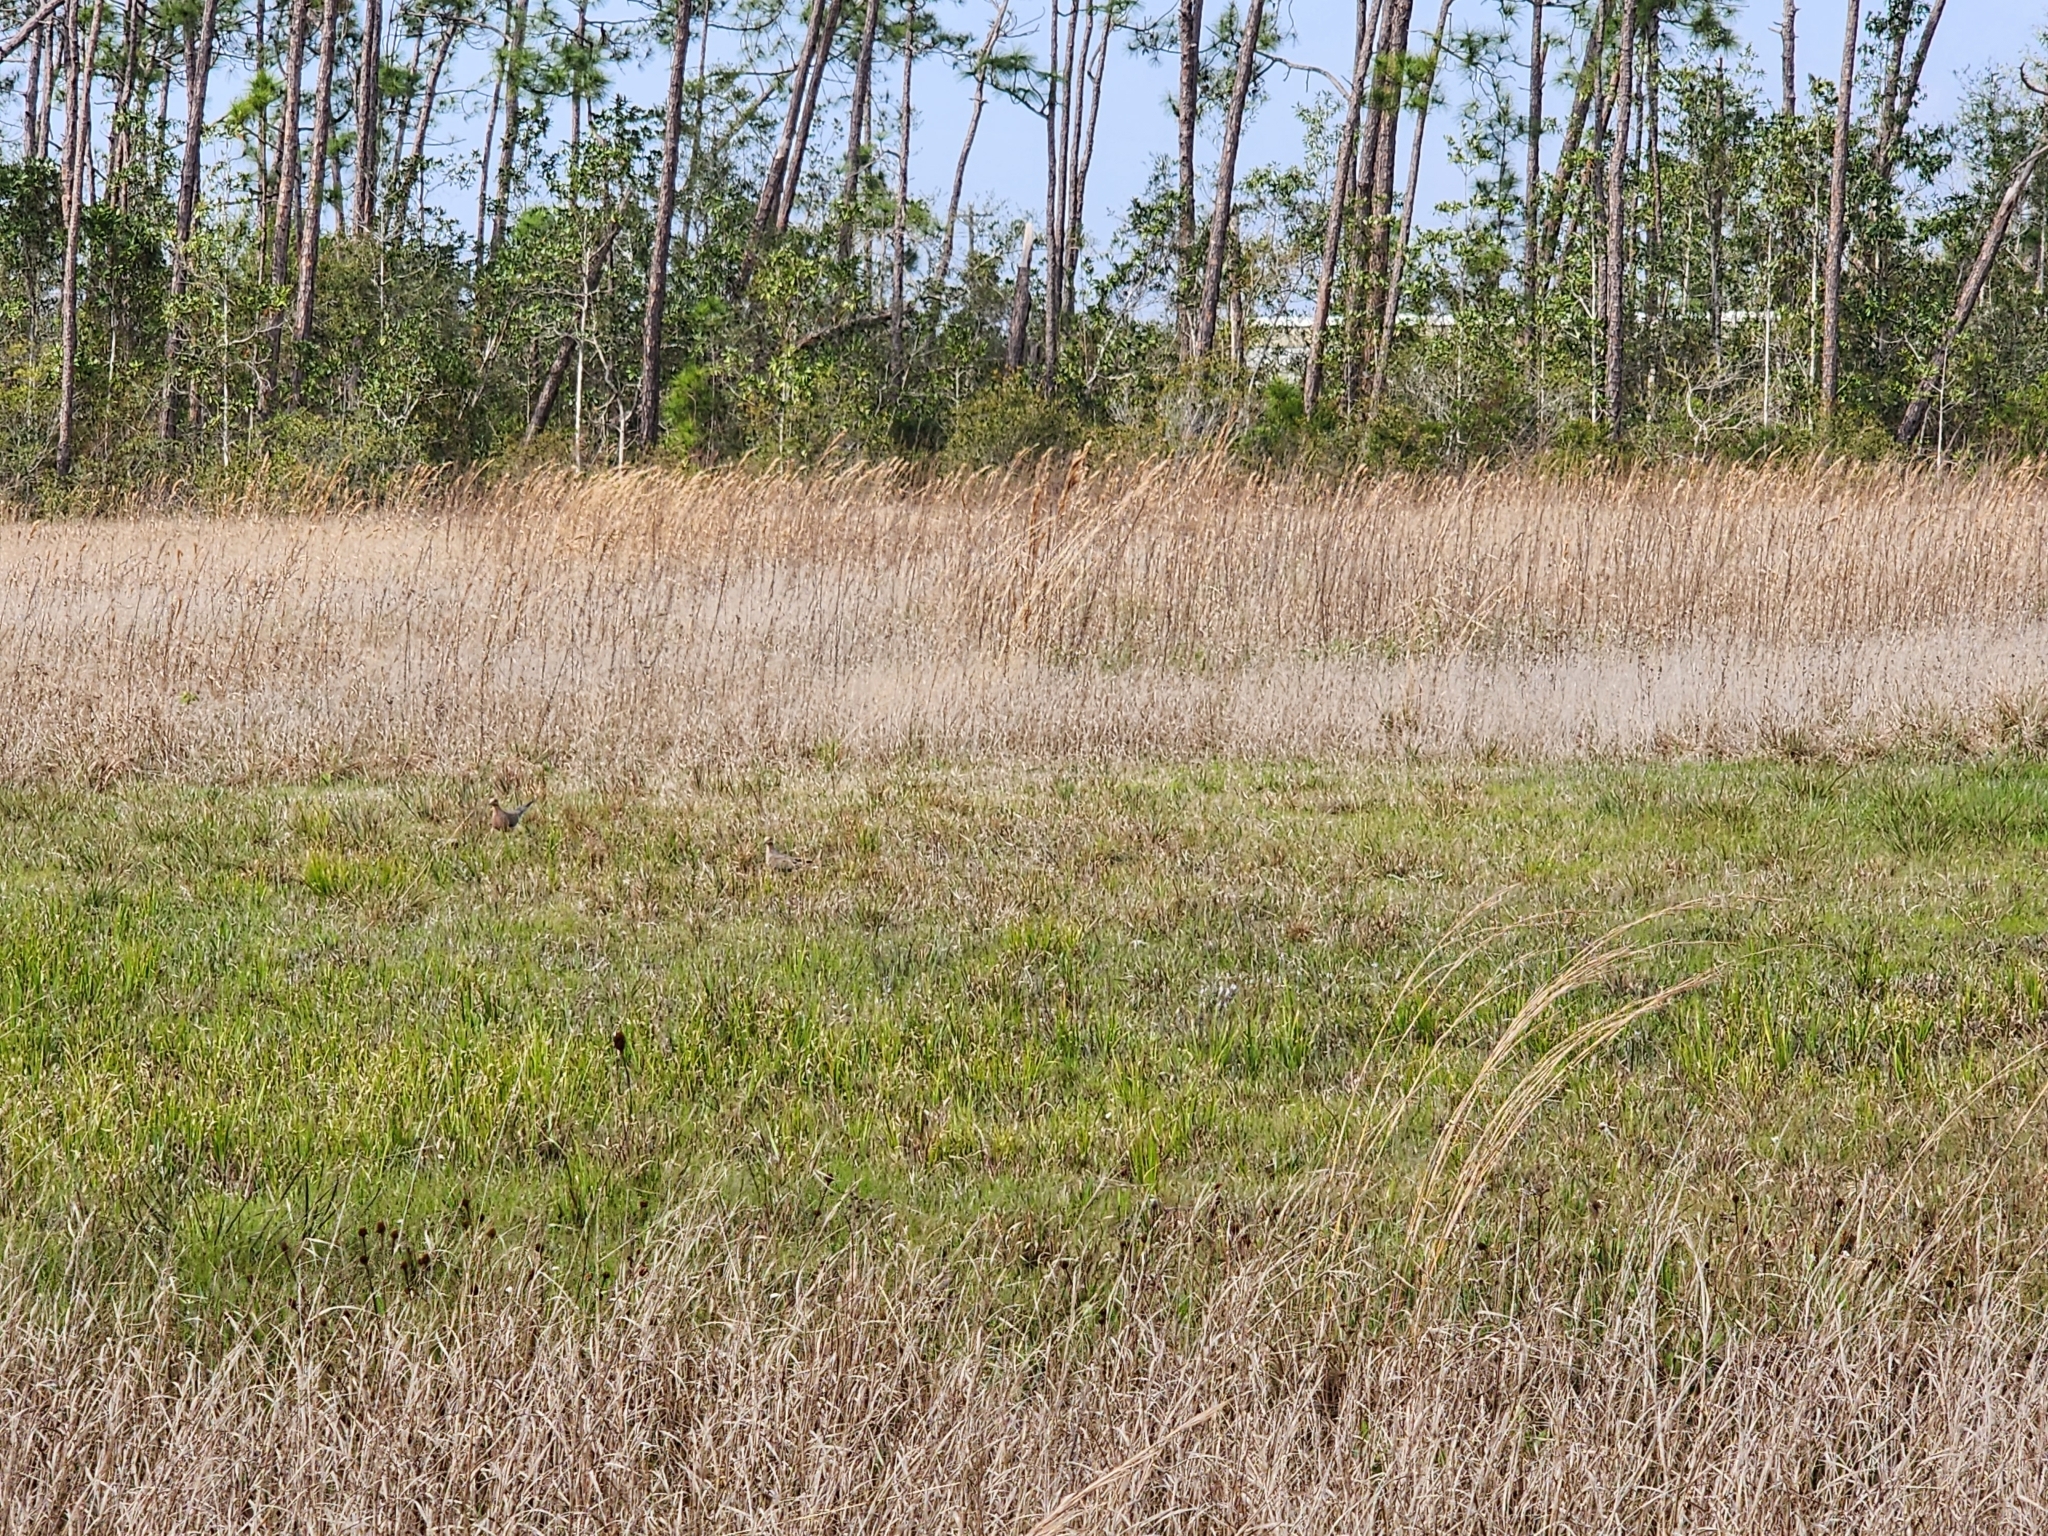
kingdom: Animalia
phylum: Chordata
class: Aves
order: Columbiformes
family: Columbidae
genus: Zenaida
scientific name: Zenaida macroura
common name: Mourning dove
